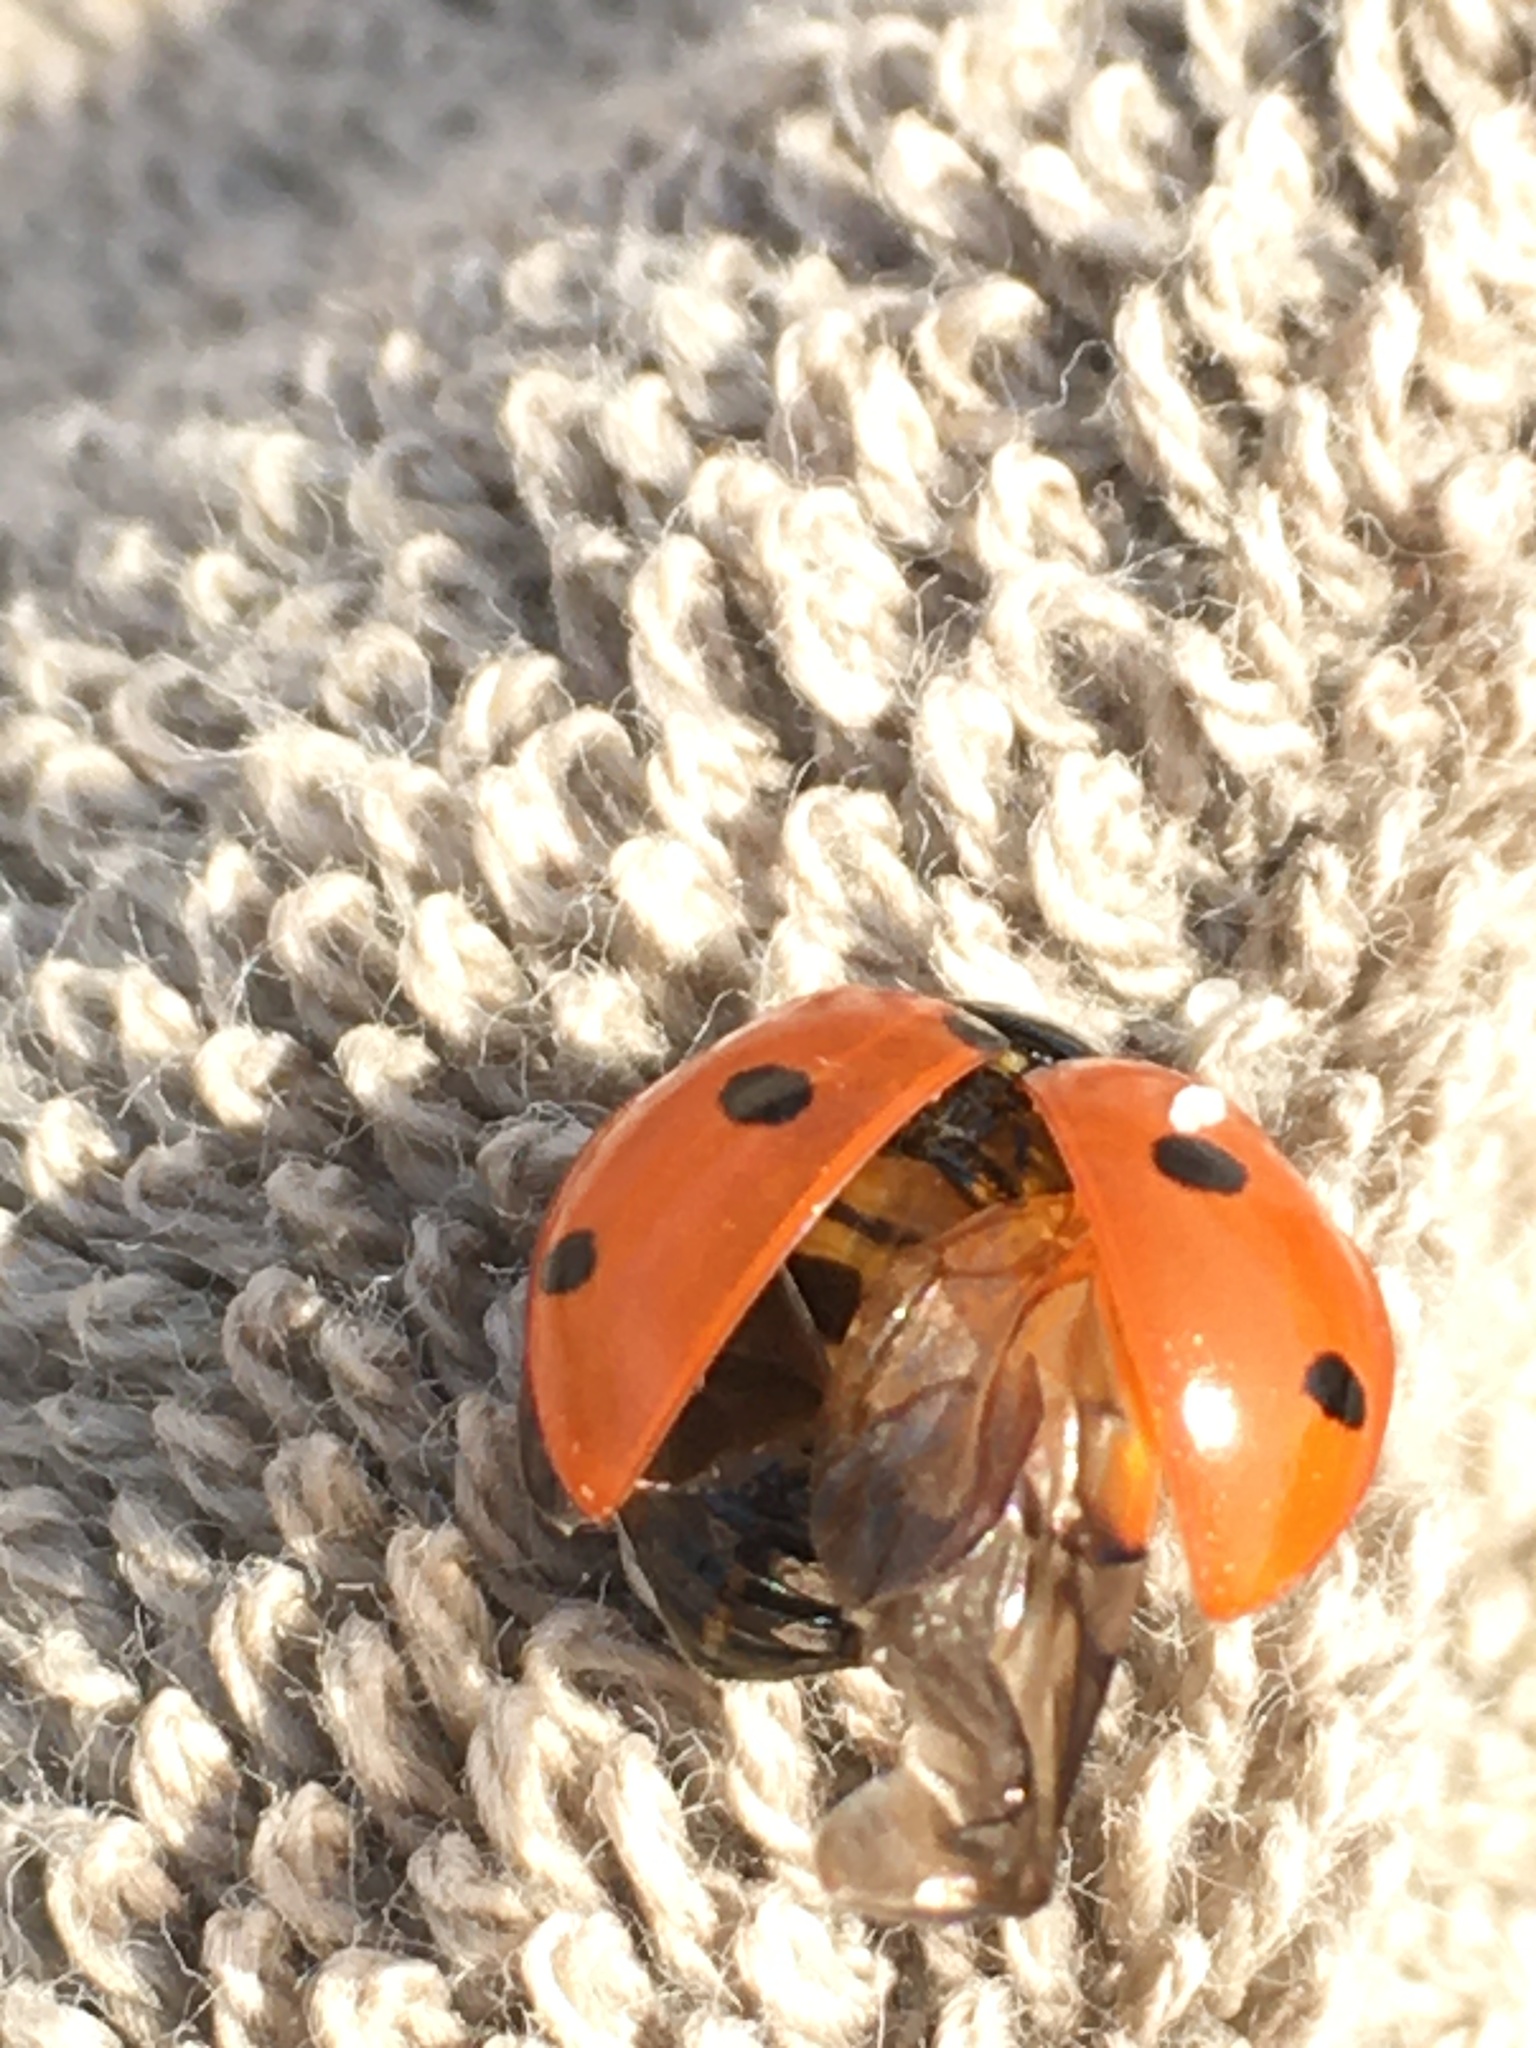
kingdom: Animalia
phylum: Arthropoda
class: Insecta
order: Coleoptera
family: Coccinellidae
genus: Coccinella
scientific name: Coccinella septempunctata
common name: Sevenspotted lady beetle
